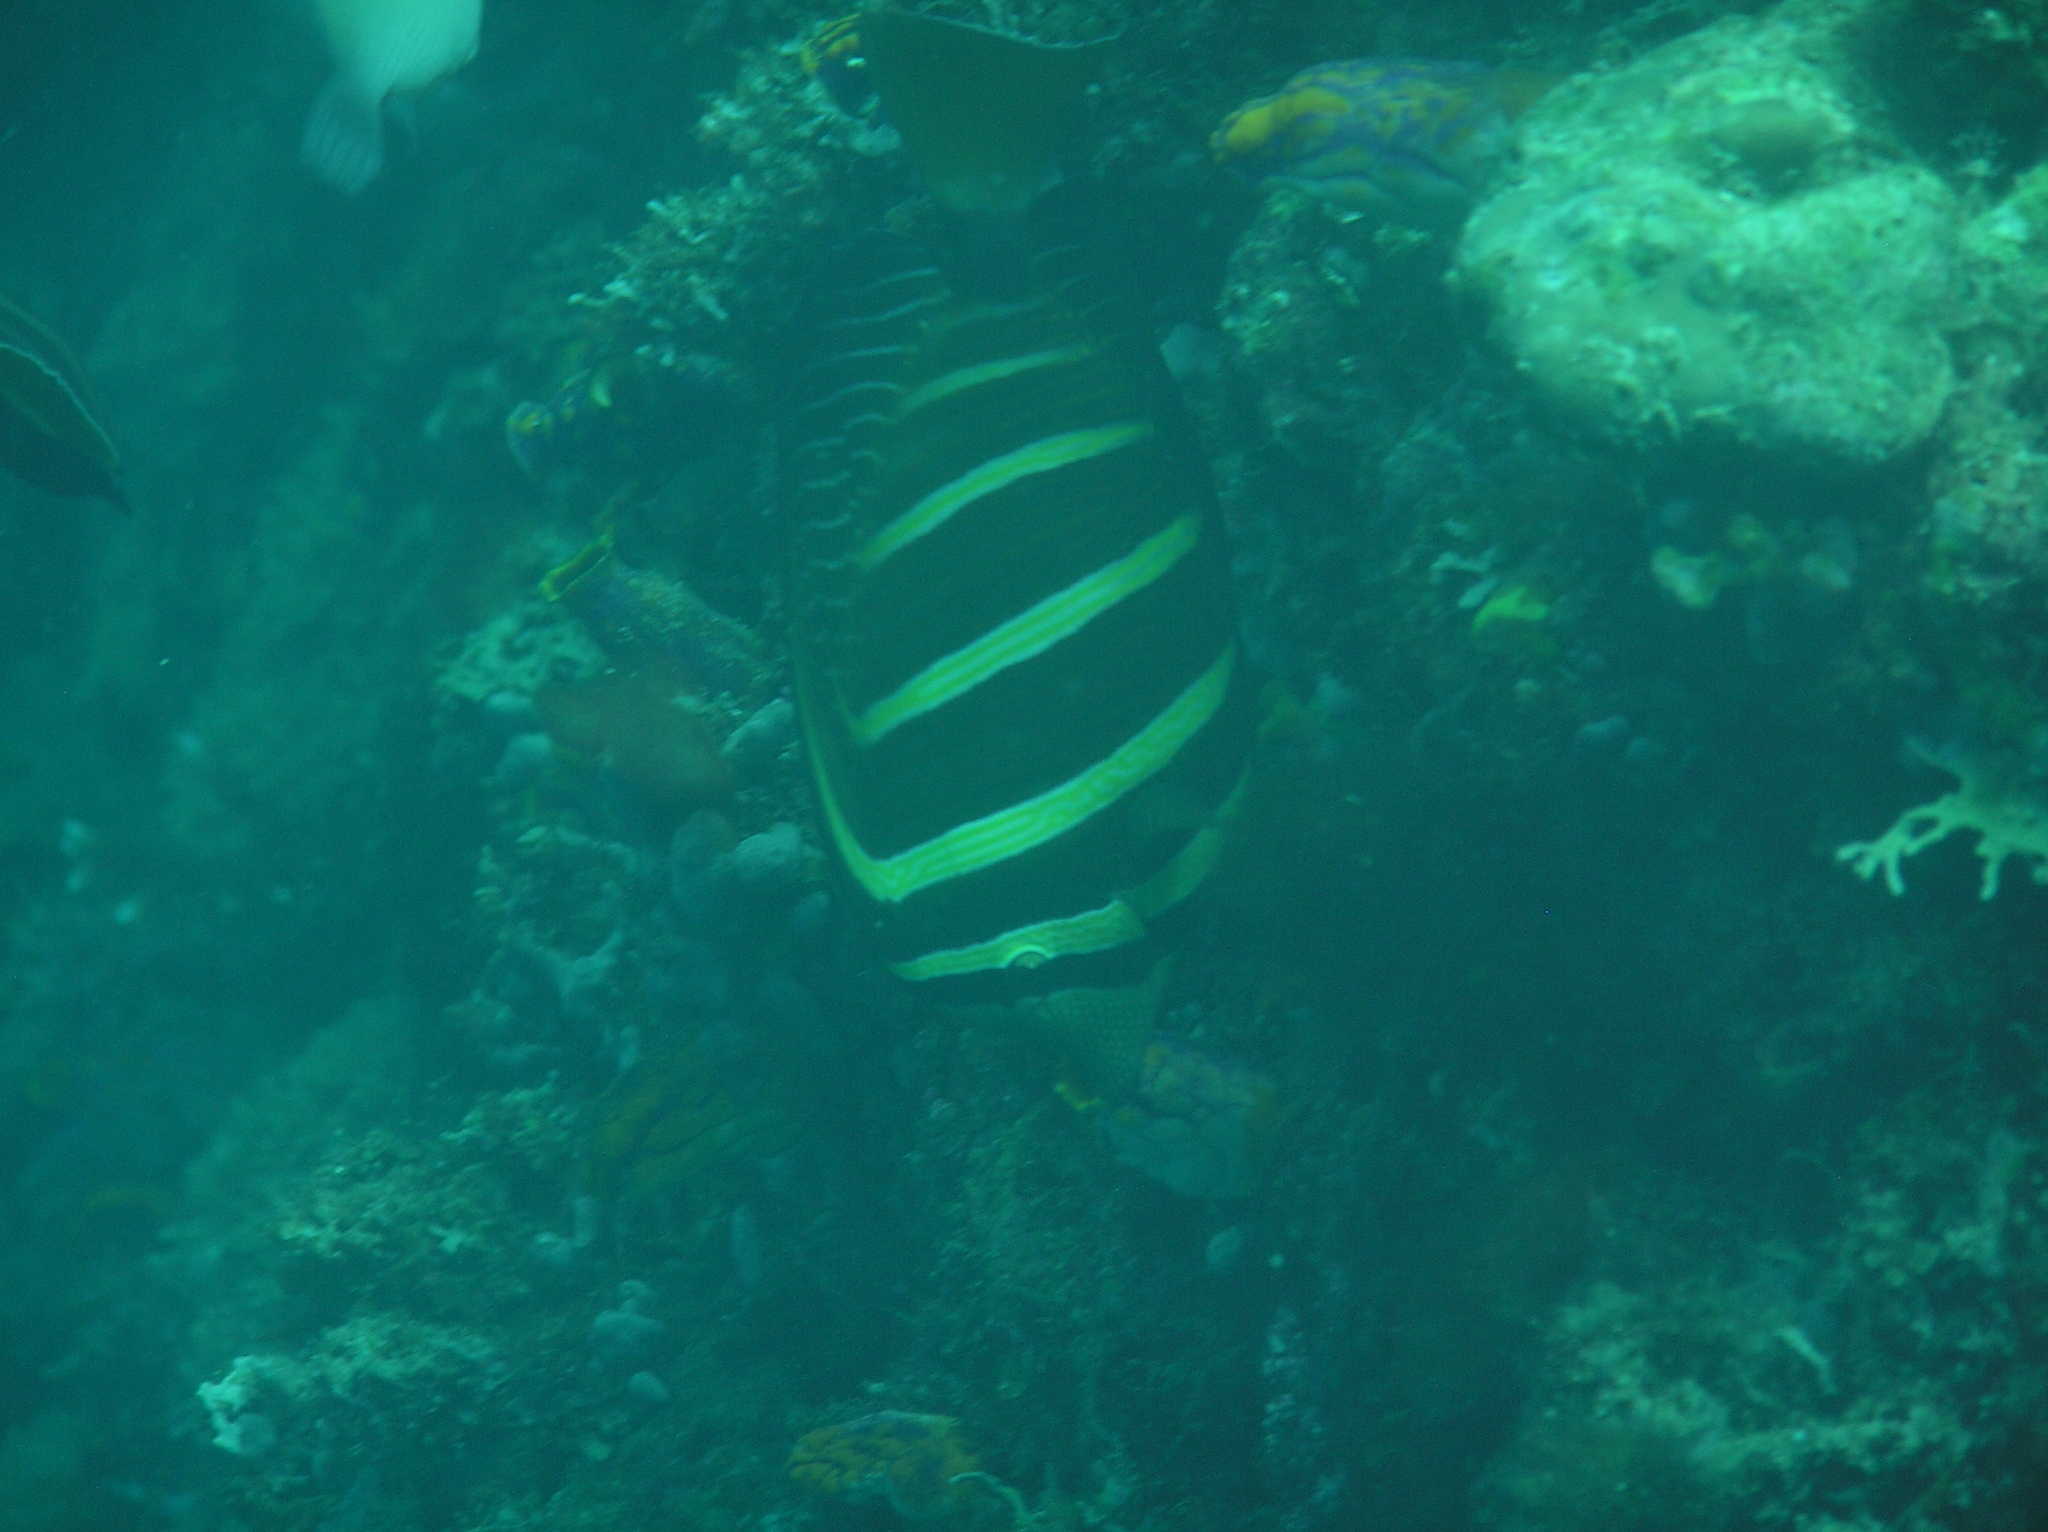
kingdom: Animalia
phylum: Chordata
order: Perciformes
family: Acanthuridae
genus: Zebrasoma
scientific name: Zebrasoma veliferum
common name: Sailfin surgeonfish
